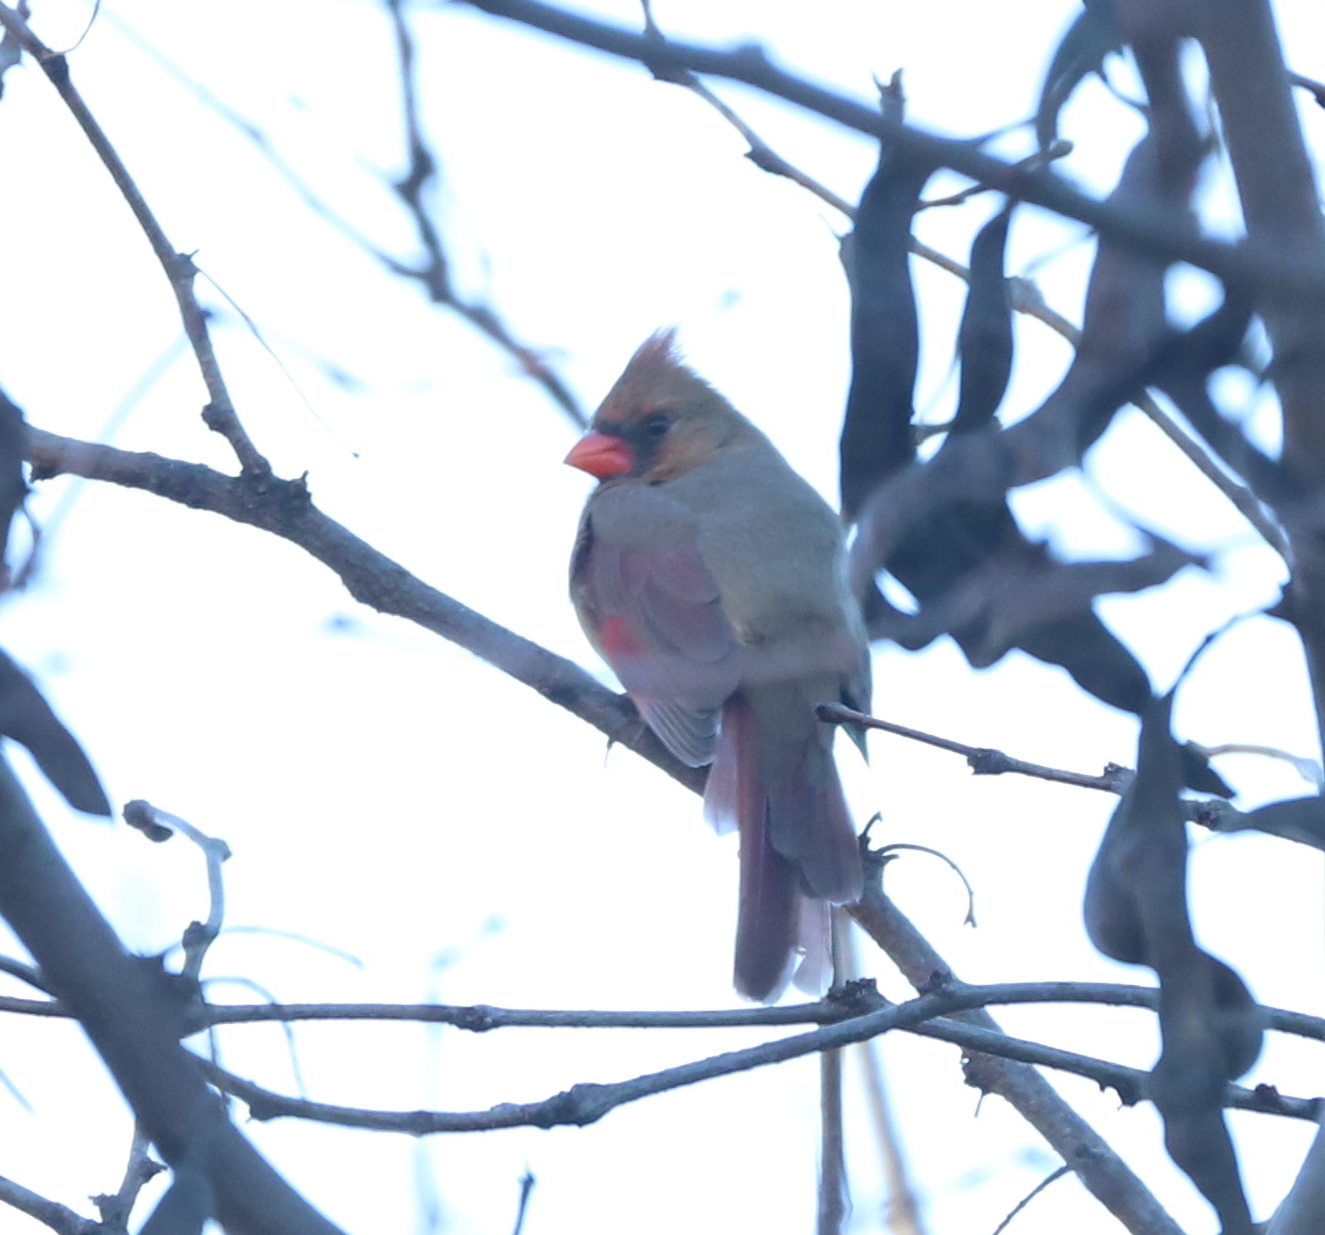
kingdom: Animalia
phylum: Chordata
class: Aves
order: Passeriformes
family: Cardinalidae
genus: Cardinalis
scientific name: Cardinalis cardinalis
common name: Northern cardinal
